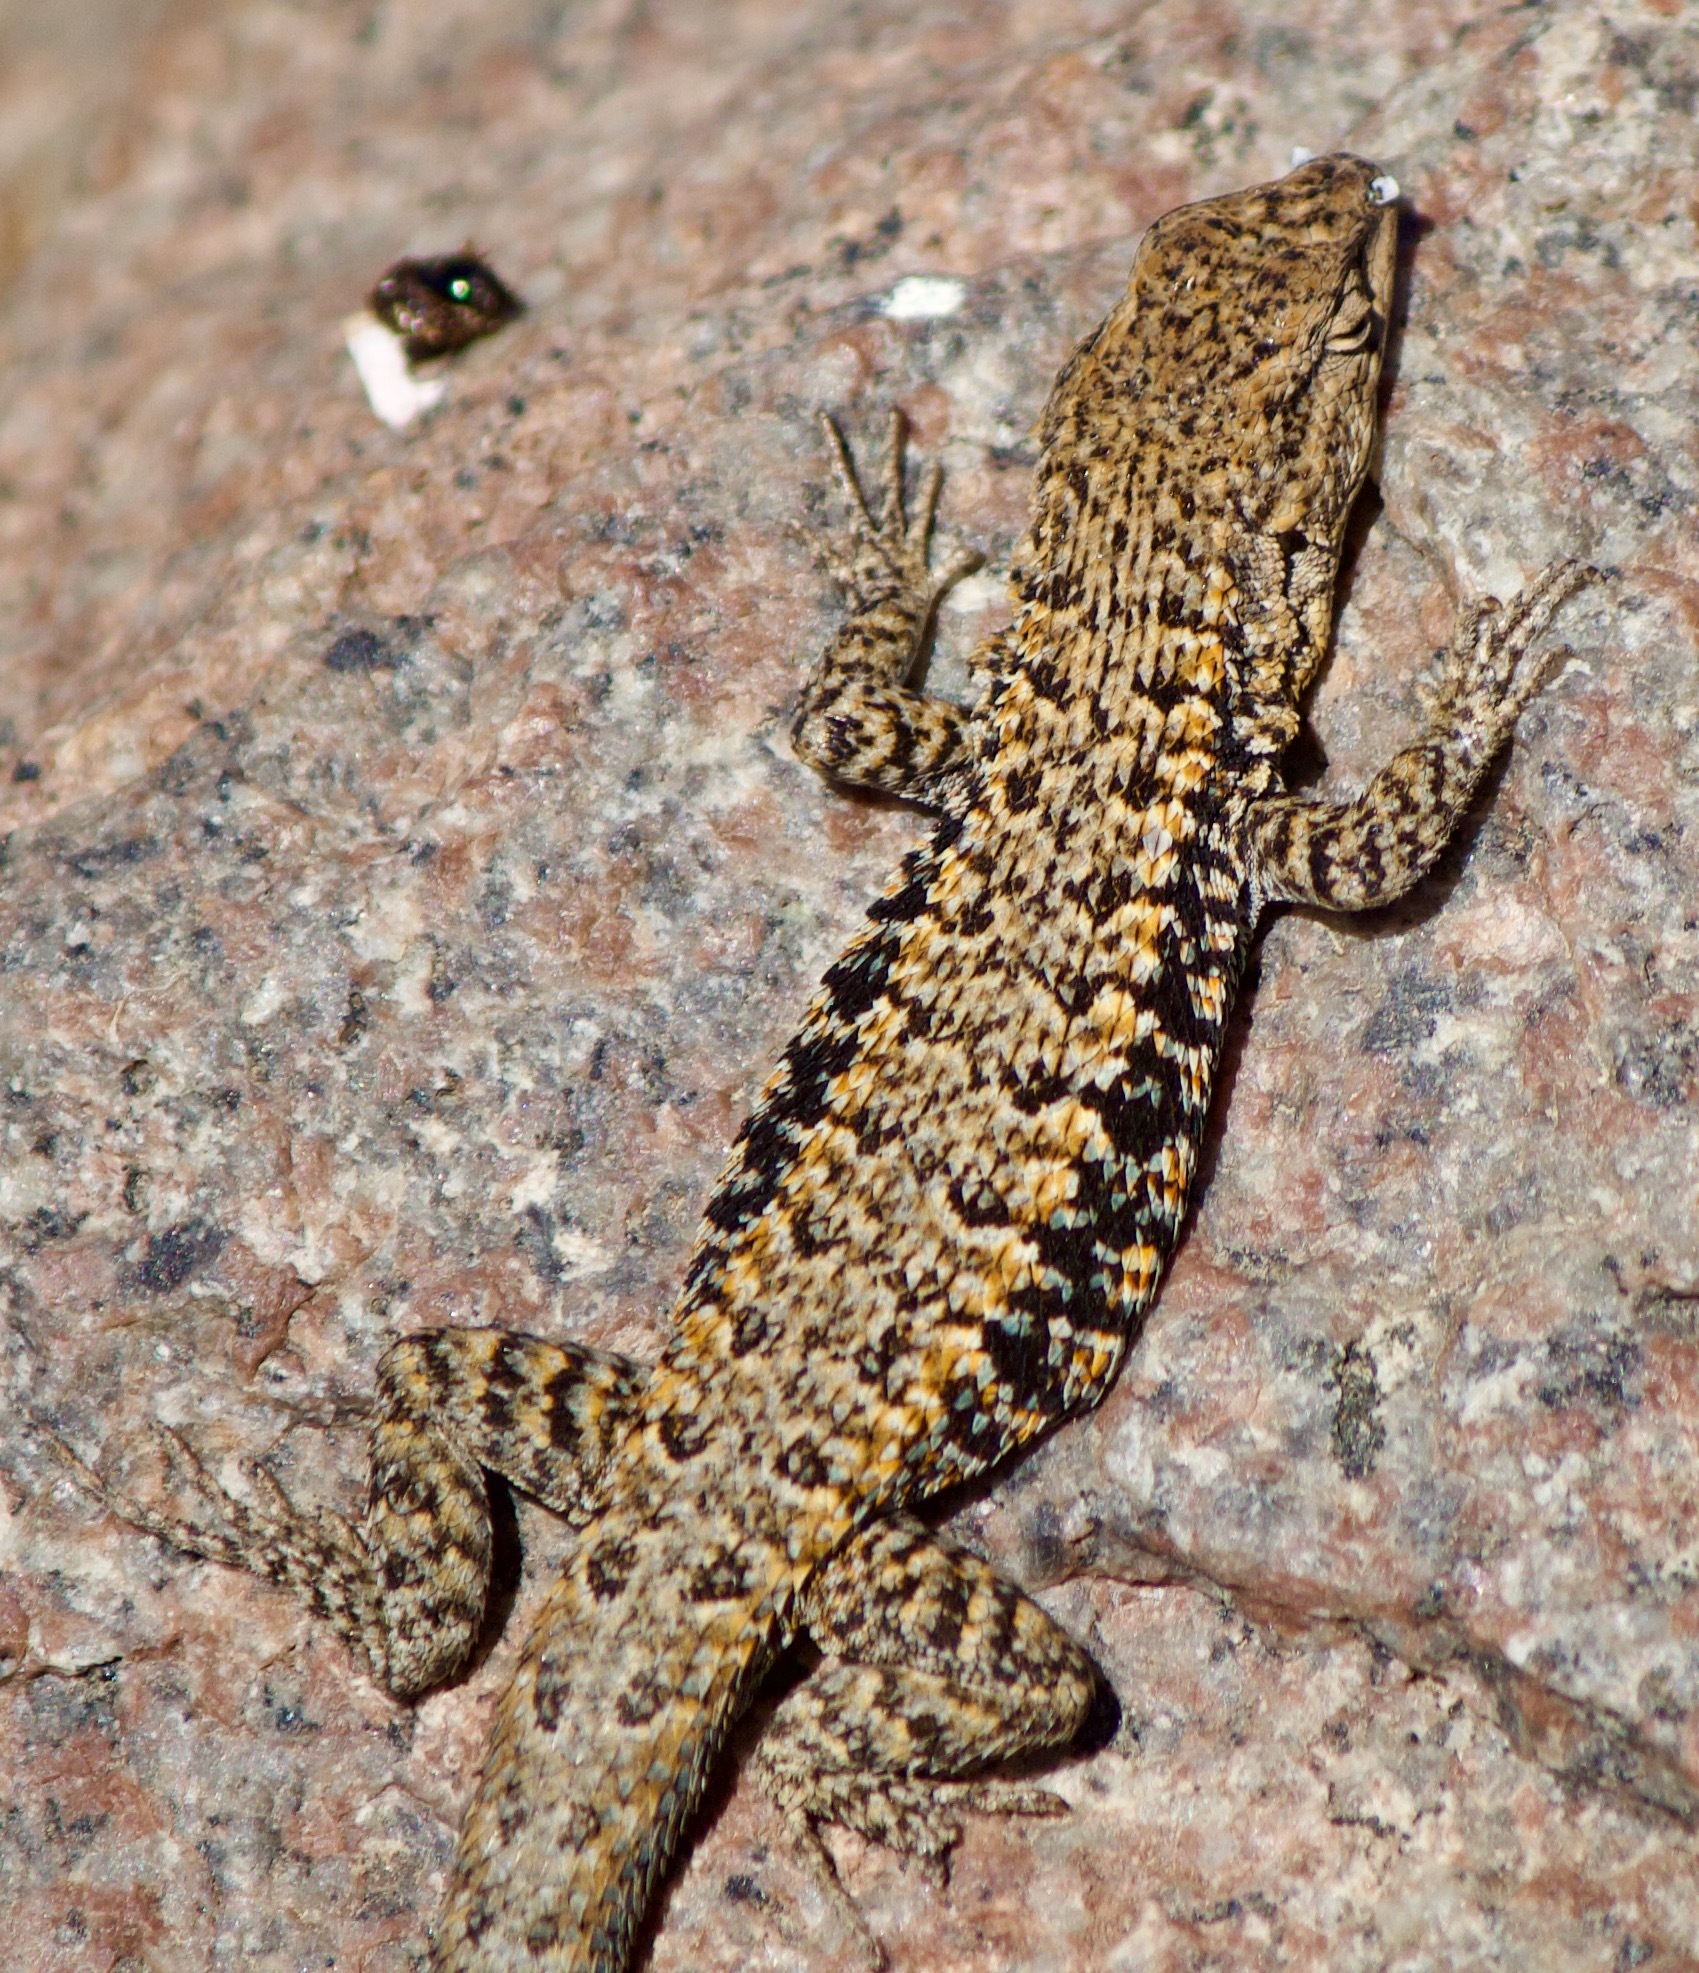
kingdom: Animalia
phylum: Chordata
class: Squamata
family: Liolaemidae
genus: Liolaemus
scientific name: Liolaemus platei
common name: Braided tree iguana
